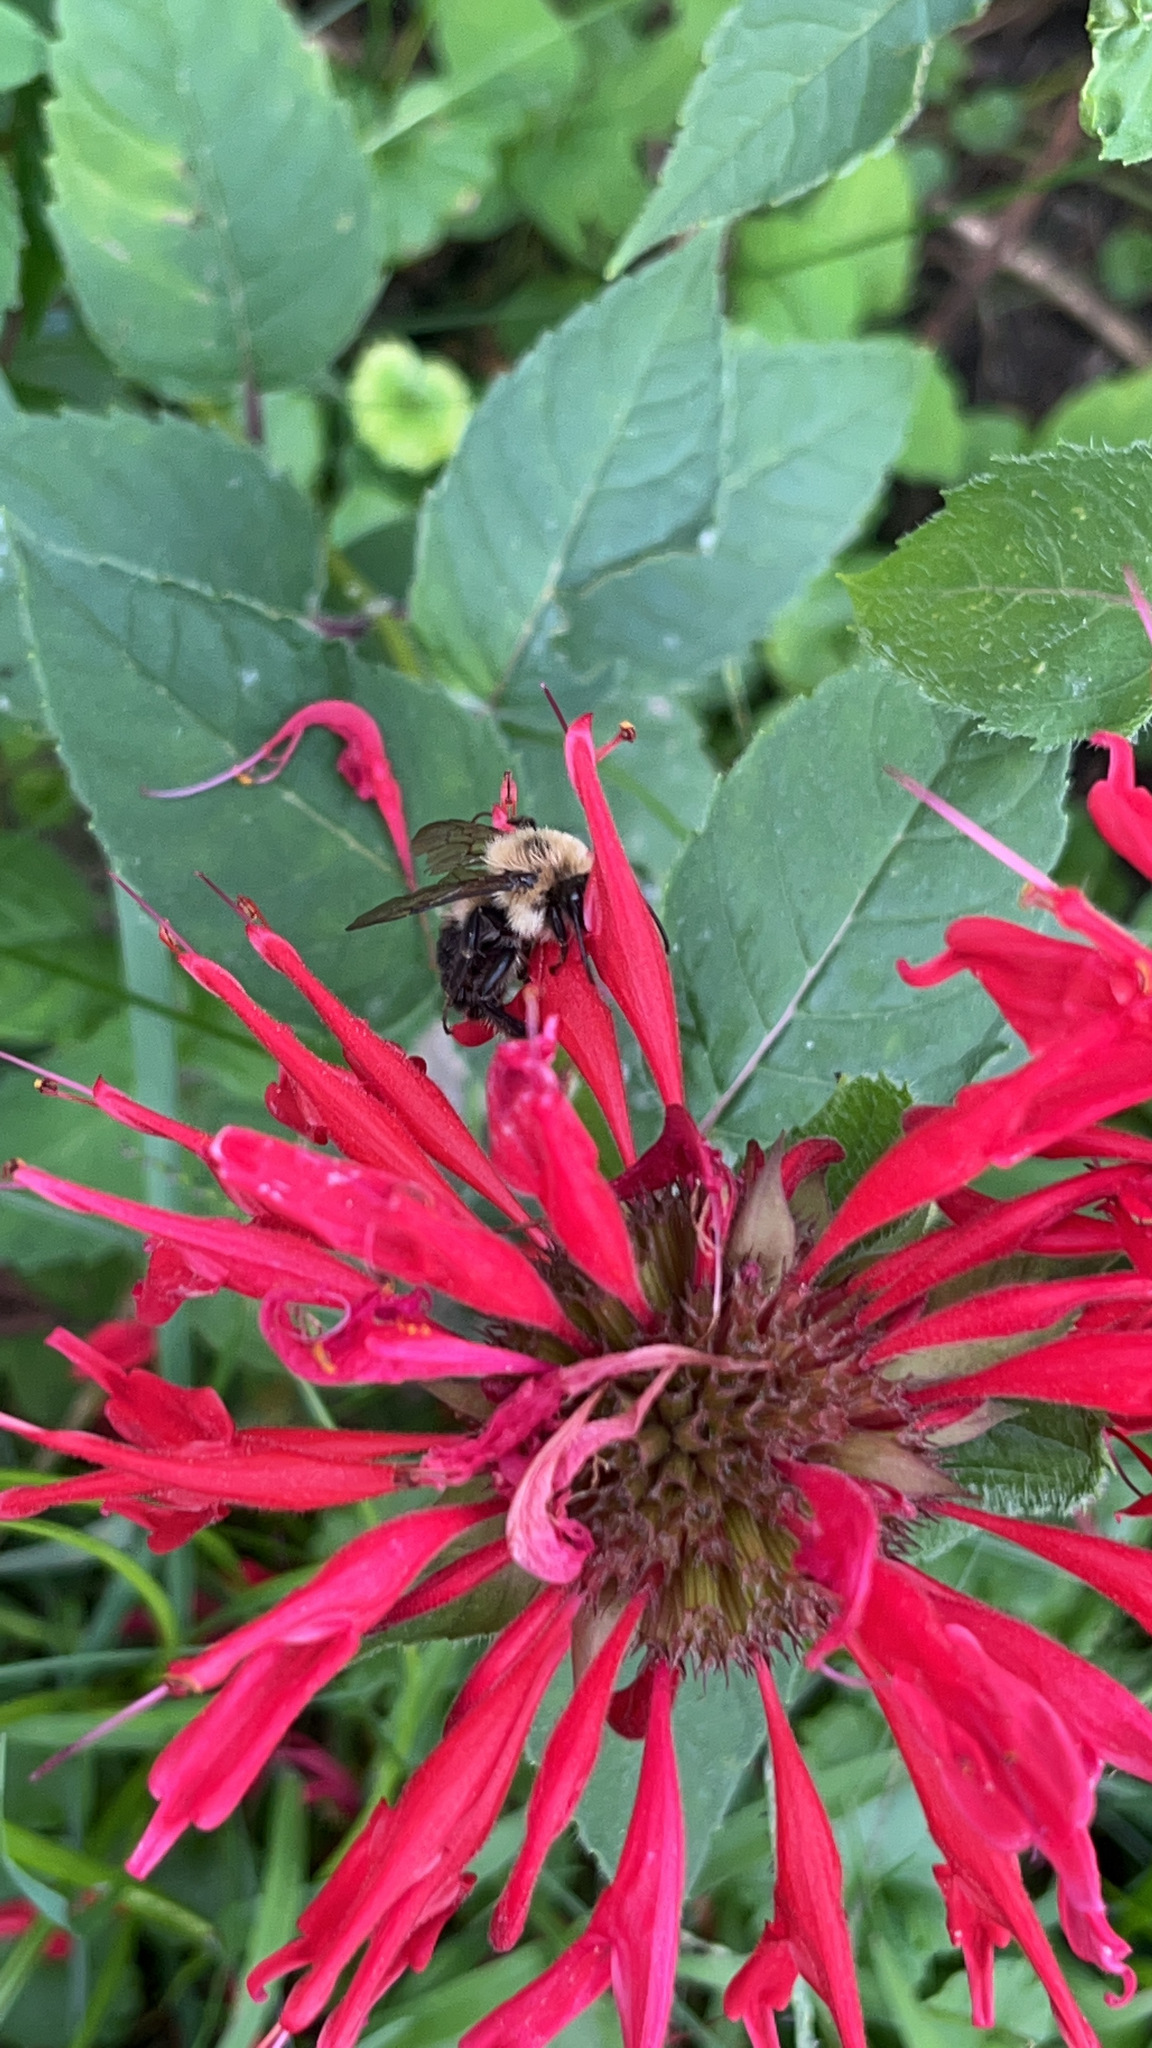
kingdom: Animalia
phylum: Arthropoda
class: Insecta
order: Hymenoptera
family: Apidae
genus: Bombus
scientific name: Bombus bimaculatus
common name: Two-spotted bumble bee
